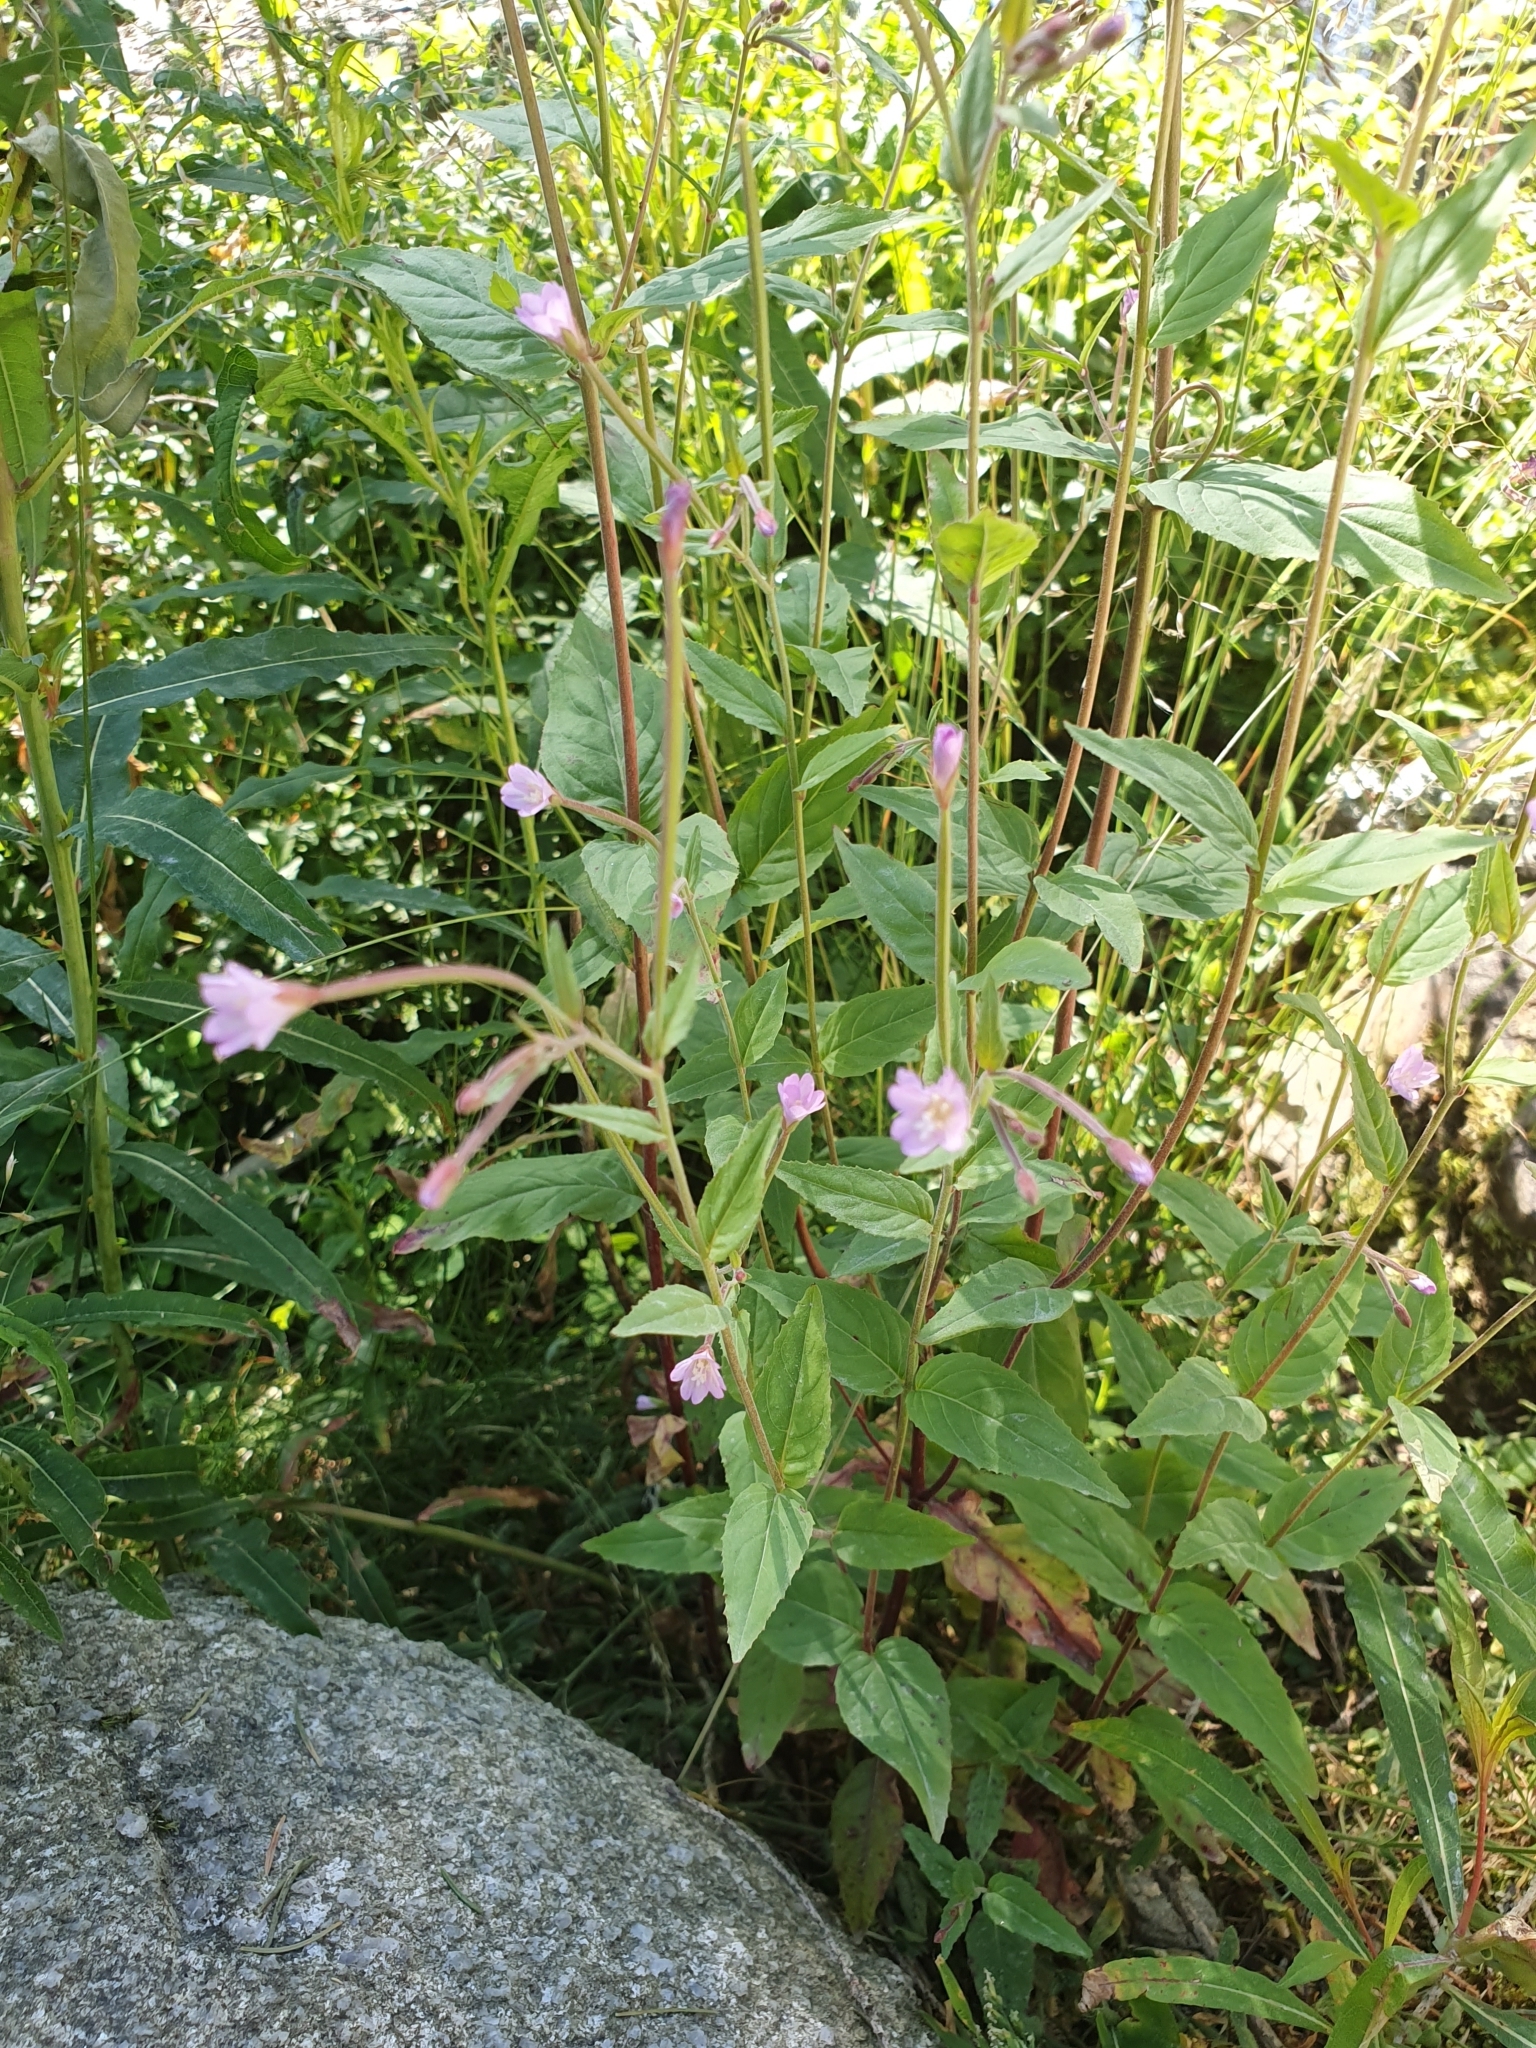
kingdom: Plantae
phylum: Tracheophyta
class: Magnoliopsida
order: Myrtales
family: Onagraceae
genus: Epilobium
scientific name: Epilobium montanum
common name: Broad-leaved willowherb
